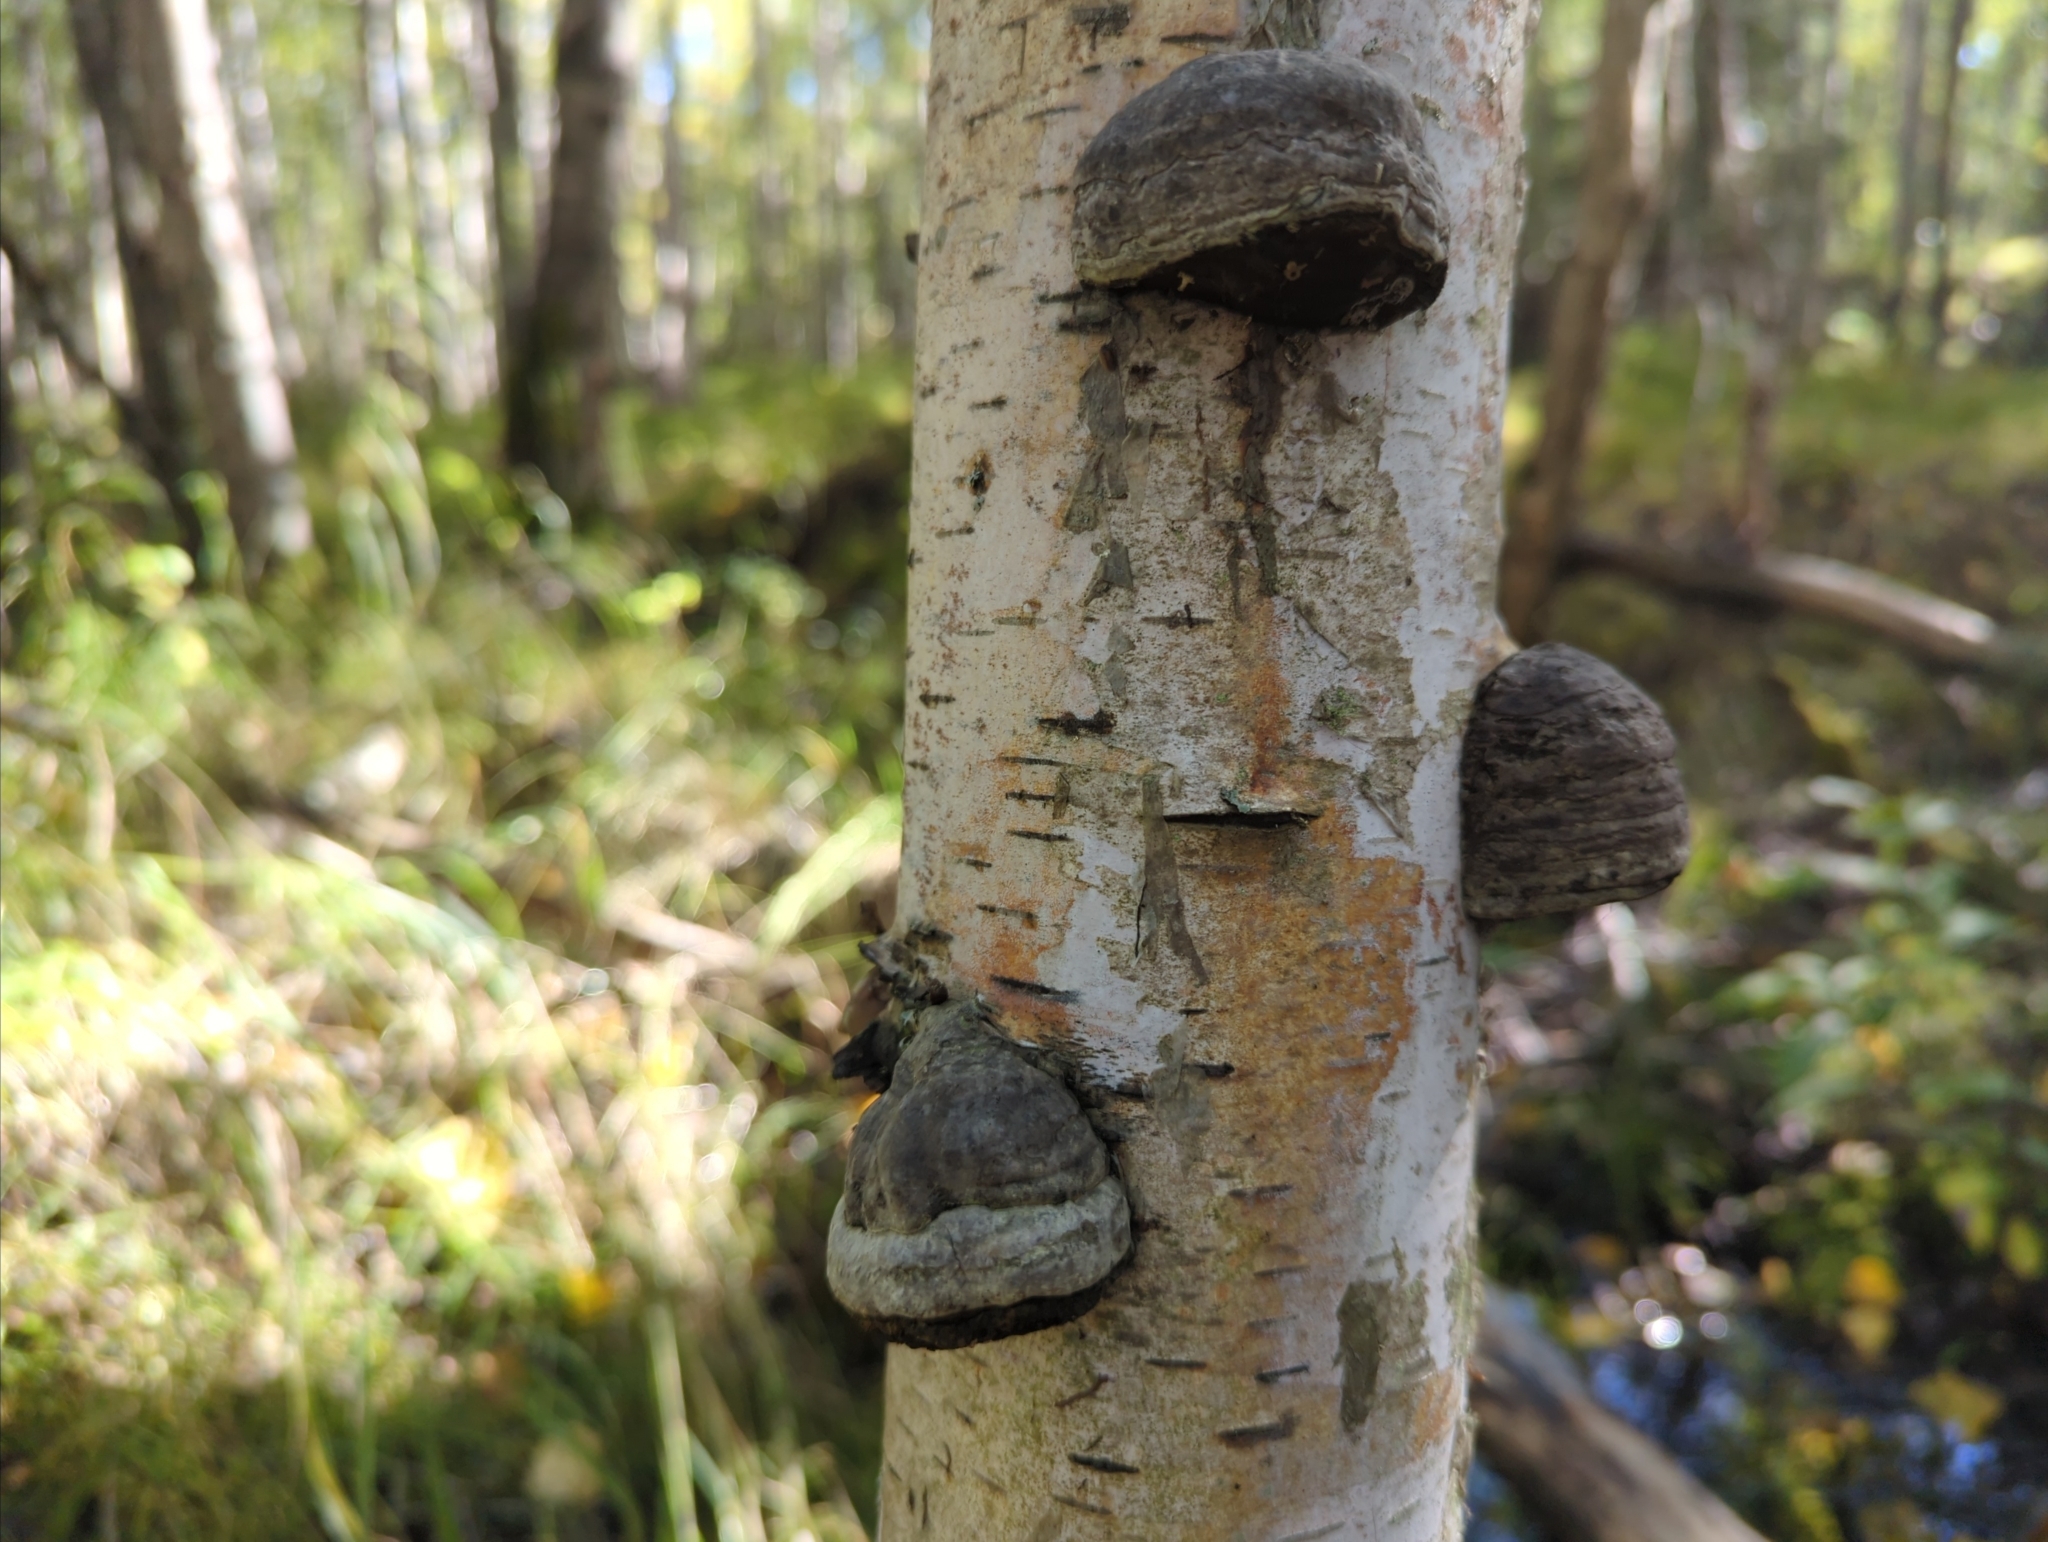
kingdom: Fungi
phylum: Basidiomycota
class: Agaricomycetes
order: Polyporales
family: Polyporaceae
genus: Fomes
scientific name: Fomes fomentarius
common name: Hoof fungus
